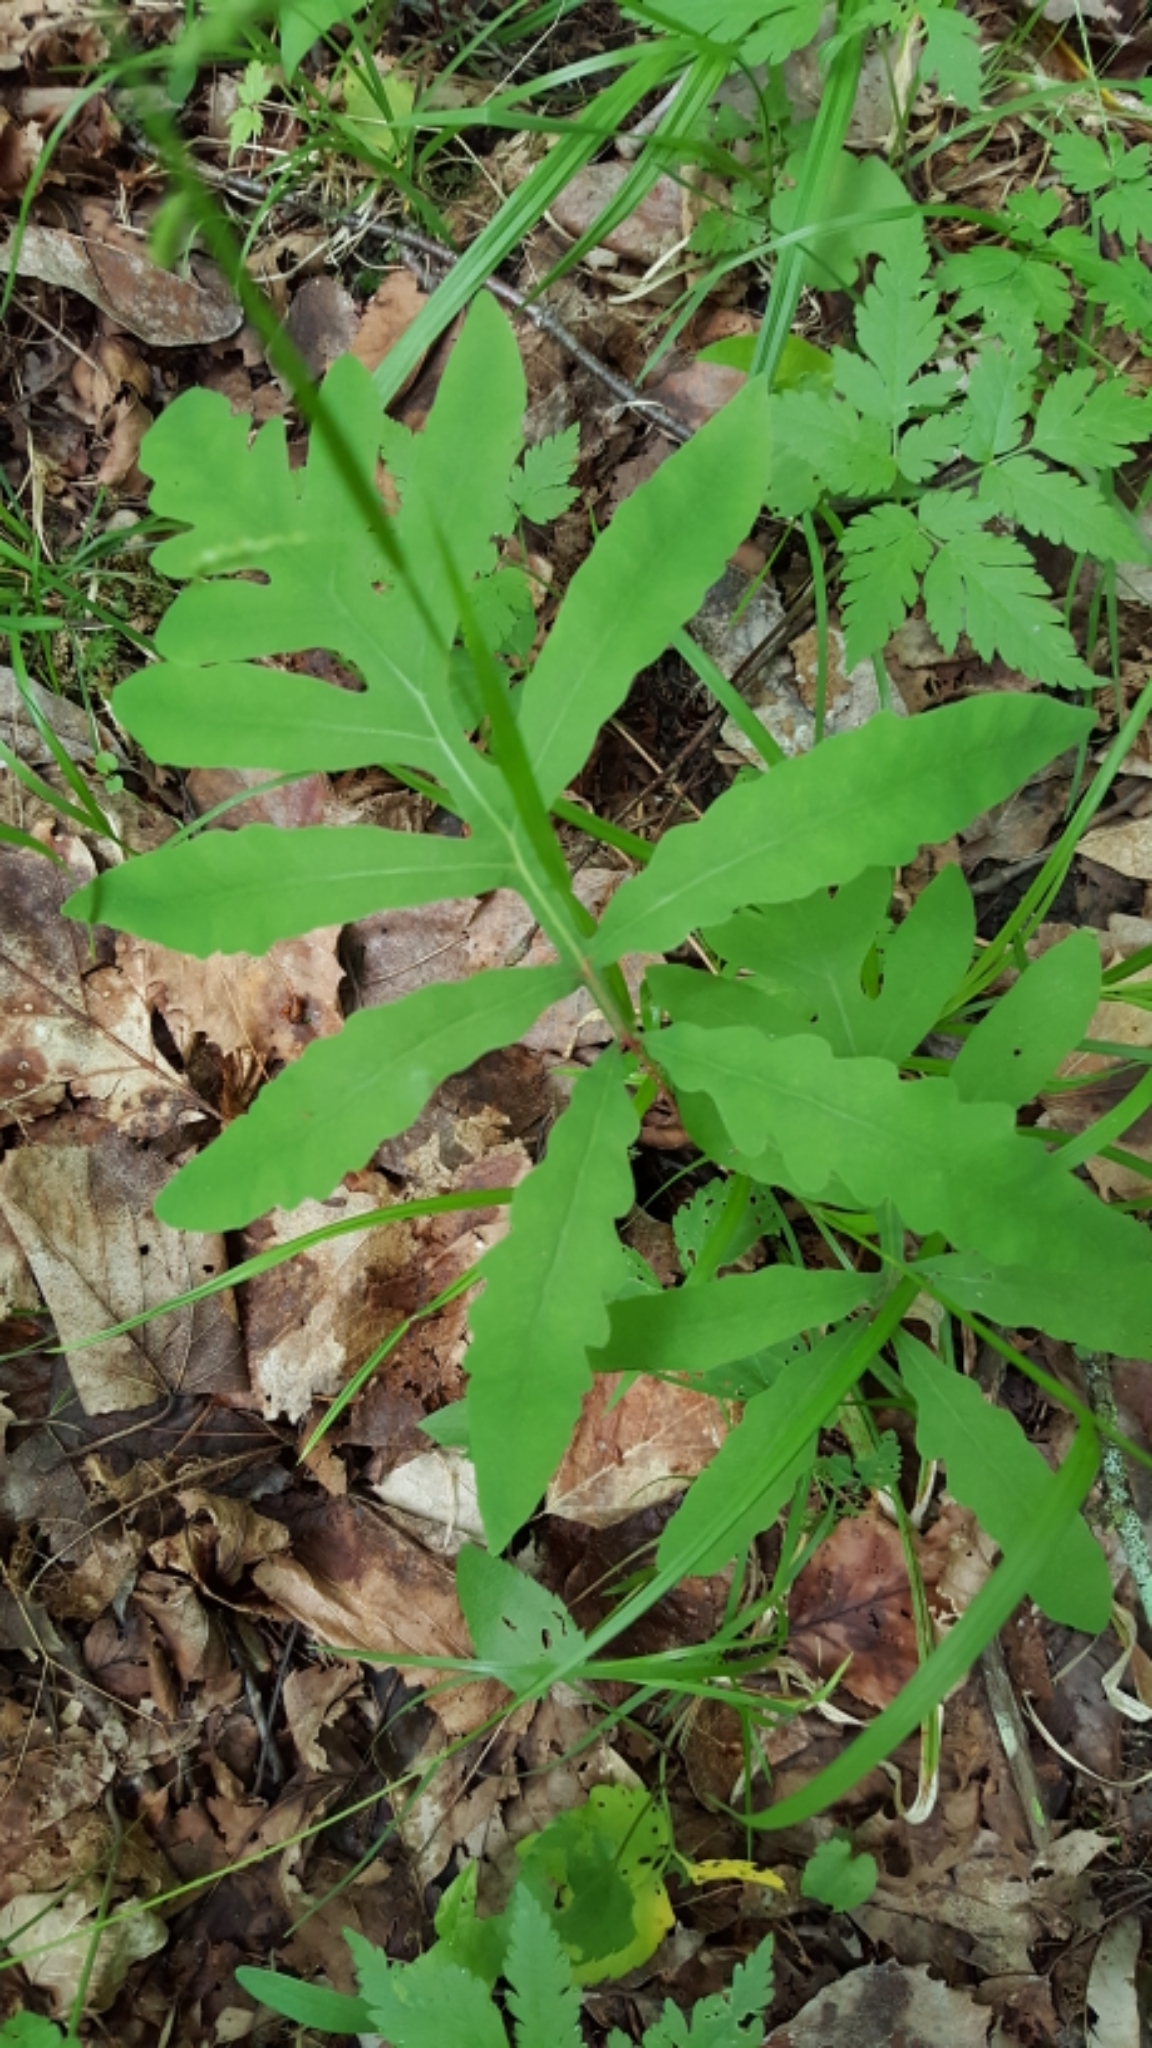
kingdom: Plantae
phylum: Tracheophyta
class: Polypodiopsida
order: Polypodiales
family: Onocleaceae
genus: Onoclea
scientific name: Onoclea sensibilis
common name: Sensitive fern
